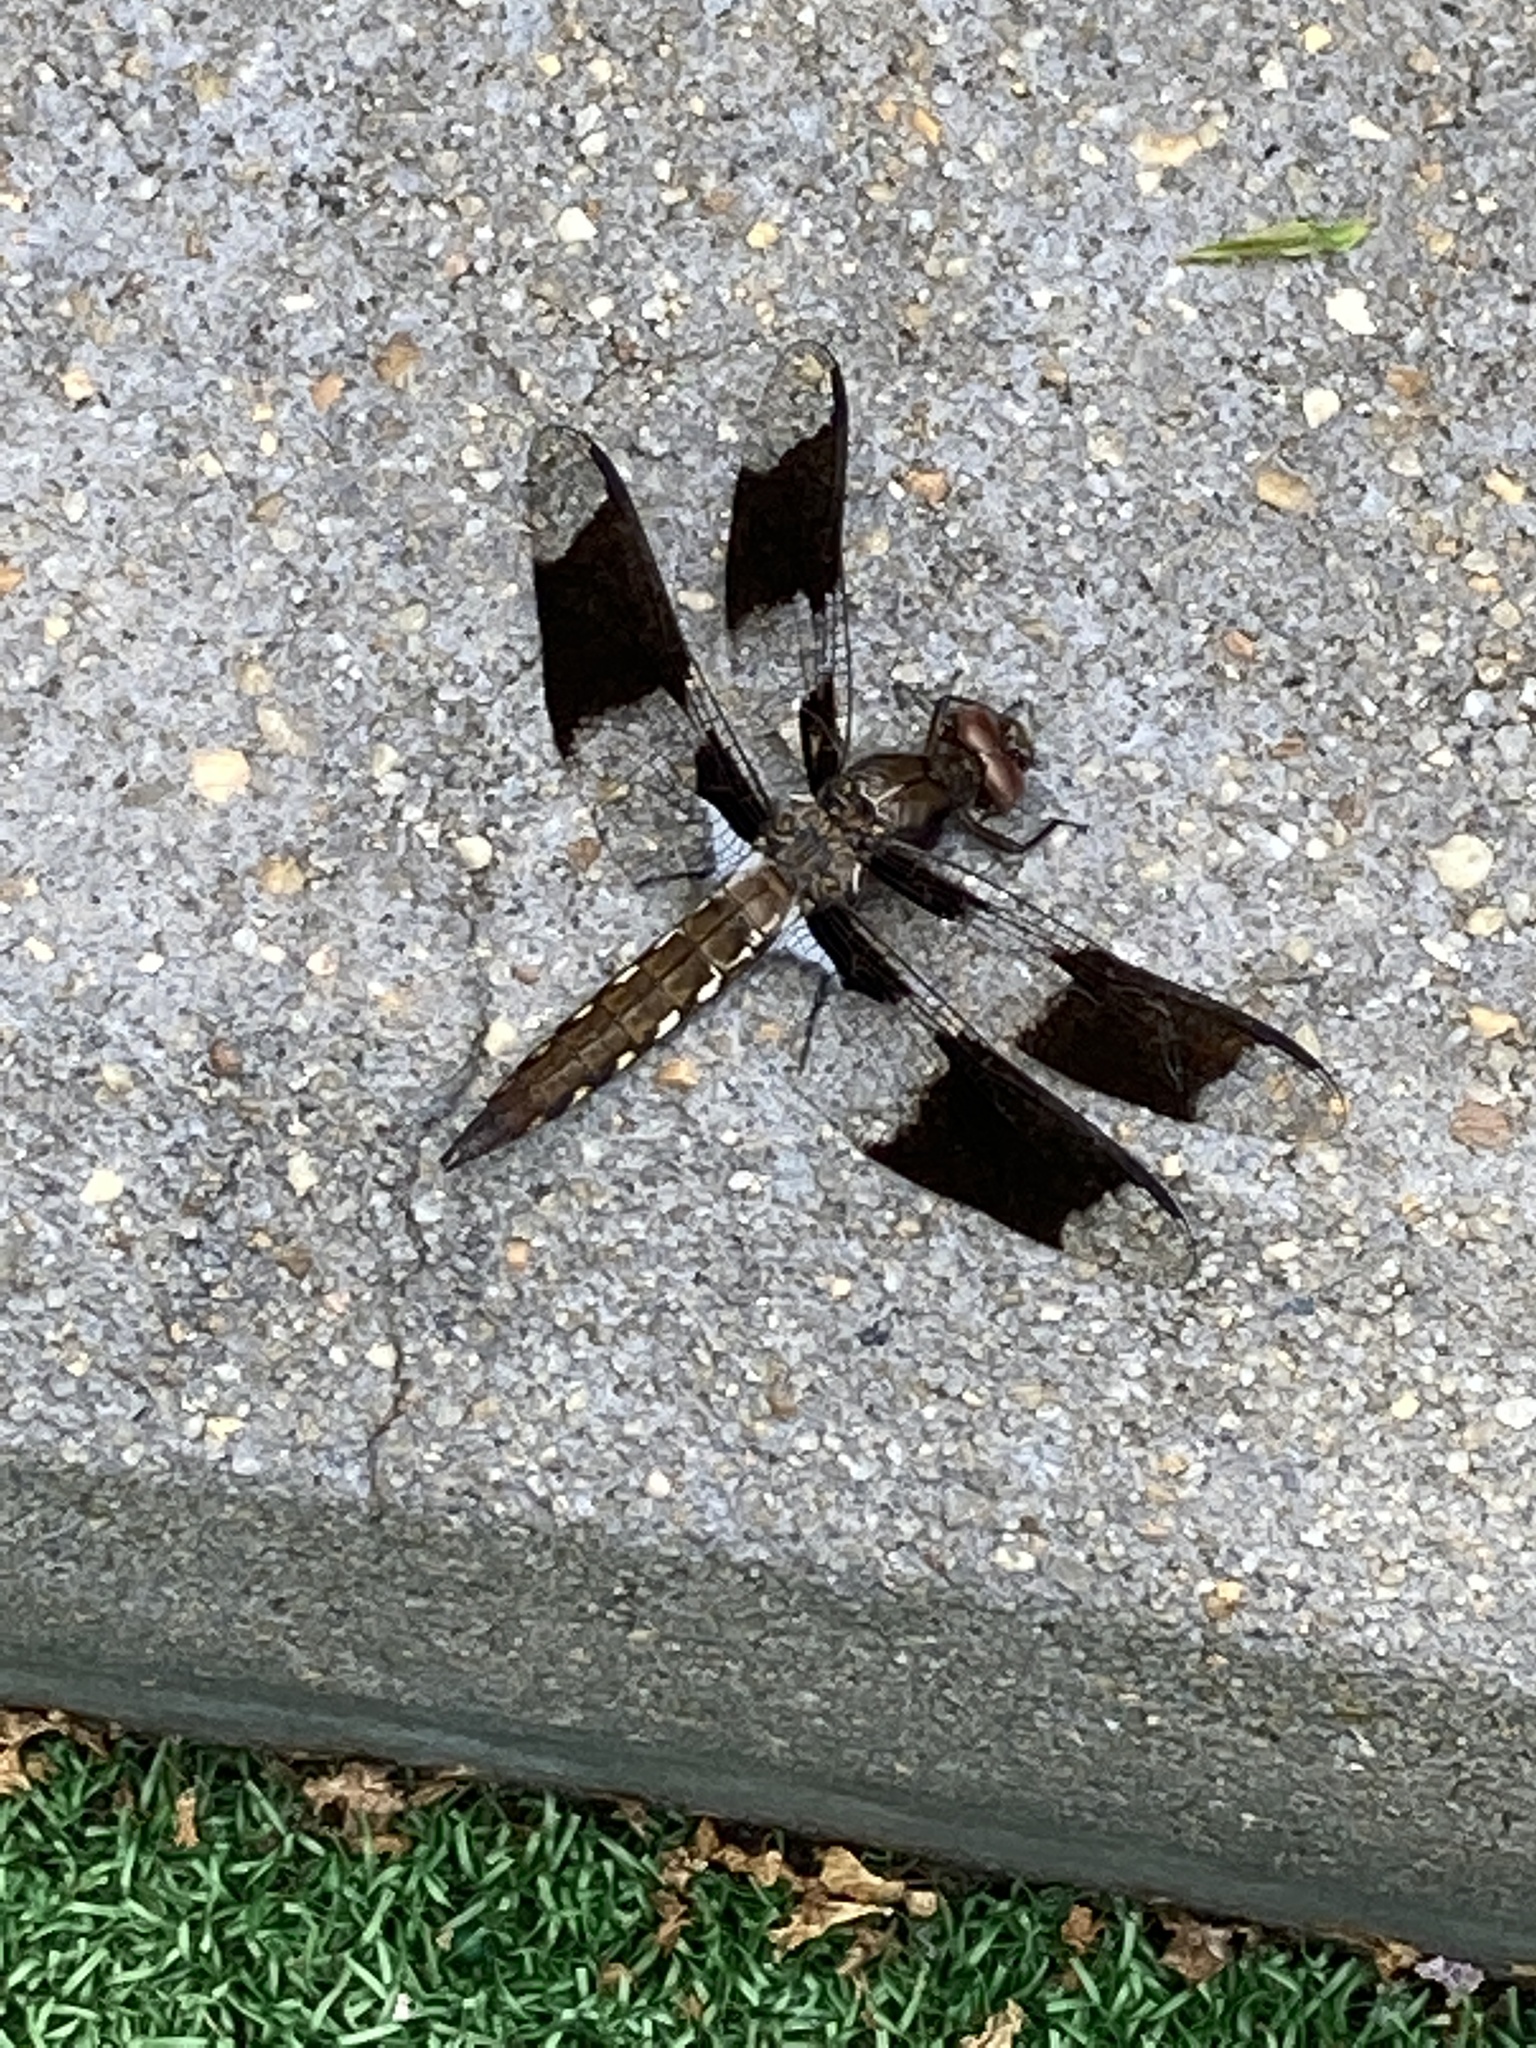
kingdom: Animalia
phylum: Arthropoda
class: Insecta
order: Odonata
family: Libellulidae
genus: Plathemis
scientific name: Plathemis lydia
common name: Common whitetail
